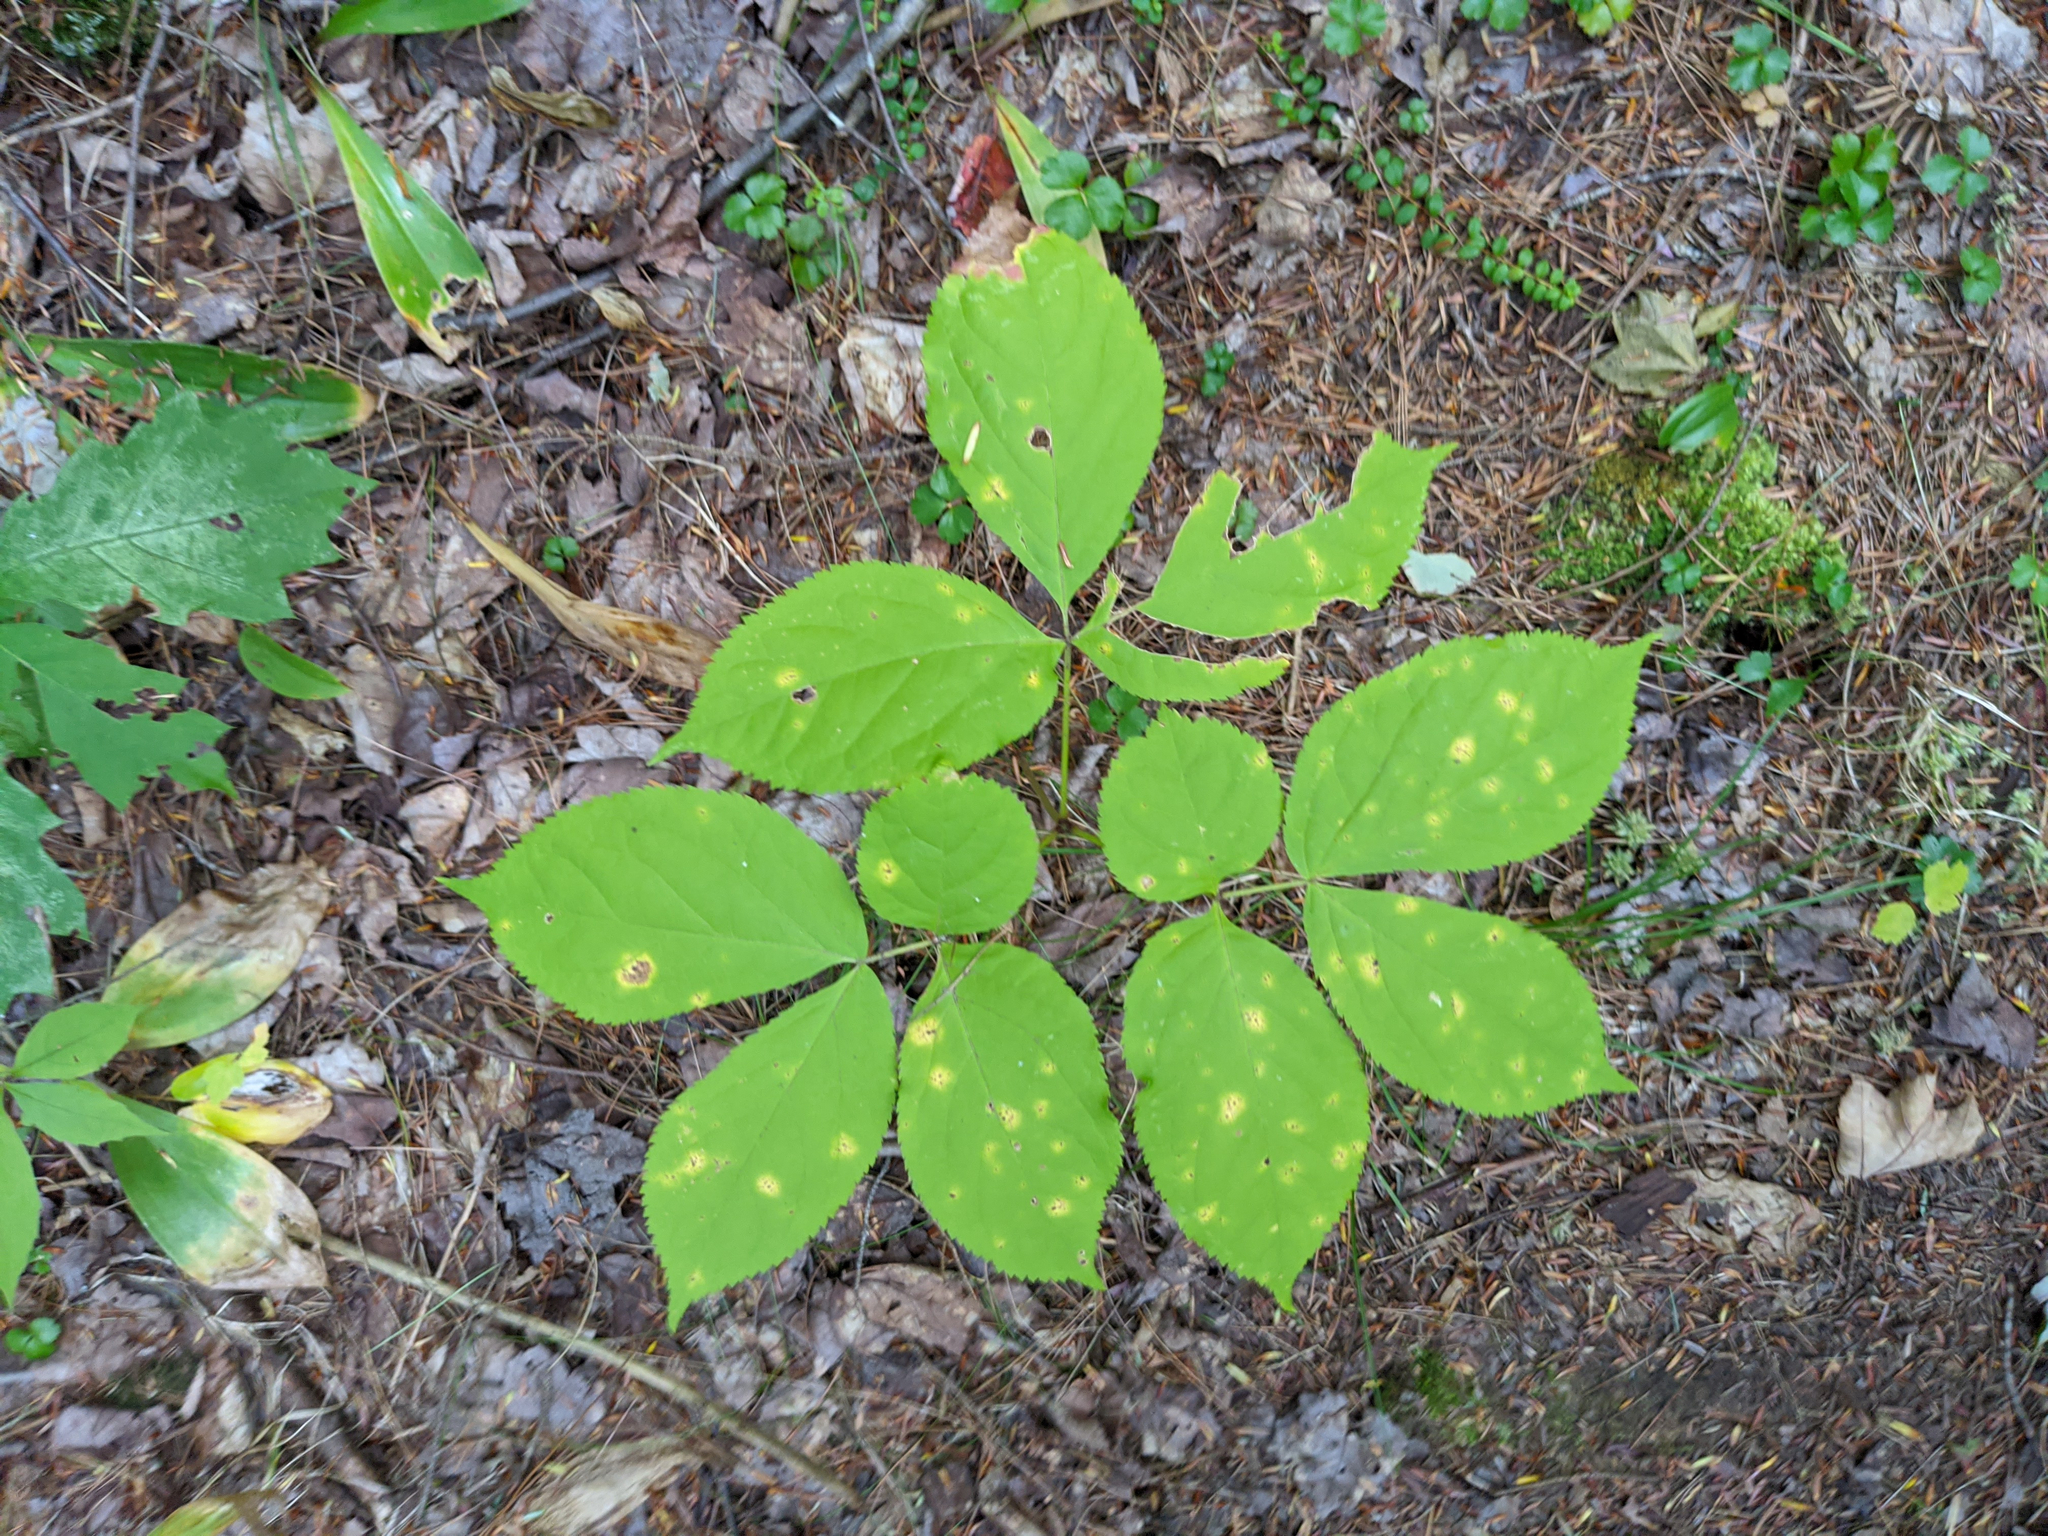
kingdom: Plantae
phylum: Tracheophyta
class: Magnoliopsida
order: Apiales
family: Araliaceae
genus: Aralia
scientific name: Aralia nudicaulis
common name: Wild sarsaparilla
